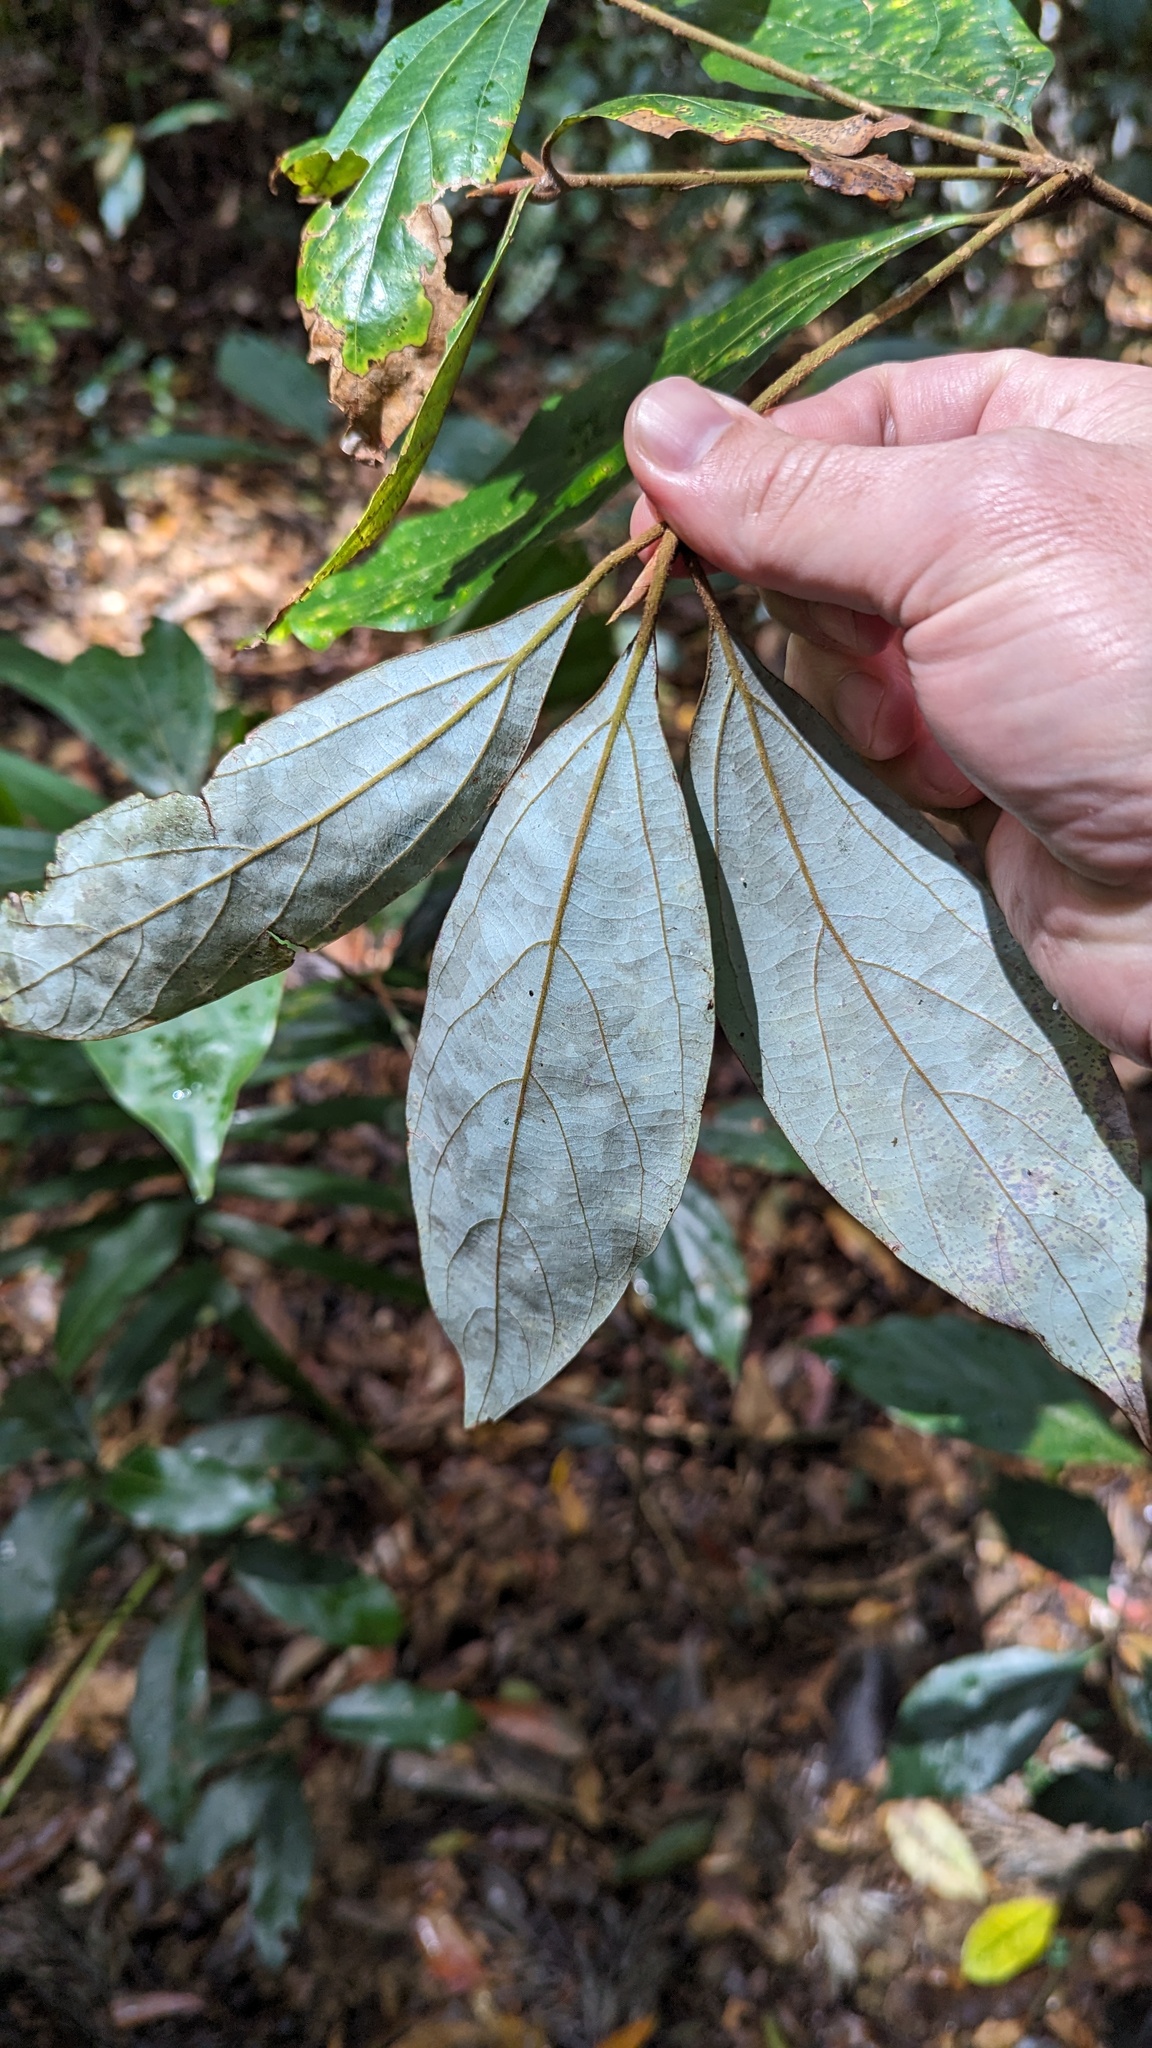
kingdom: Plantae
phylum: Tracheophyta
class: Magnoliopsida
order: Laurales
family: Lauraceae
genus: Neolitsea
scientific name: Neolitsea dealbata
